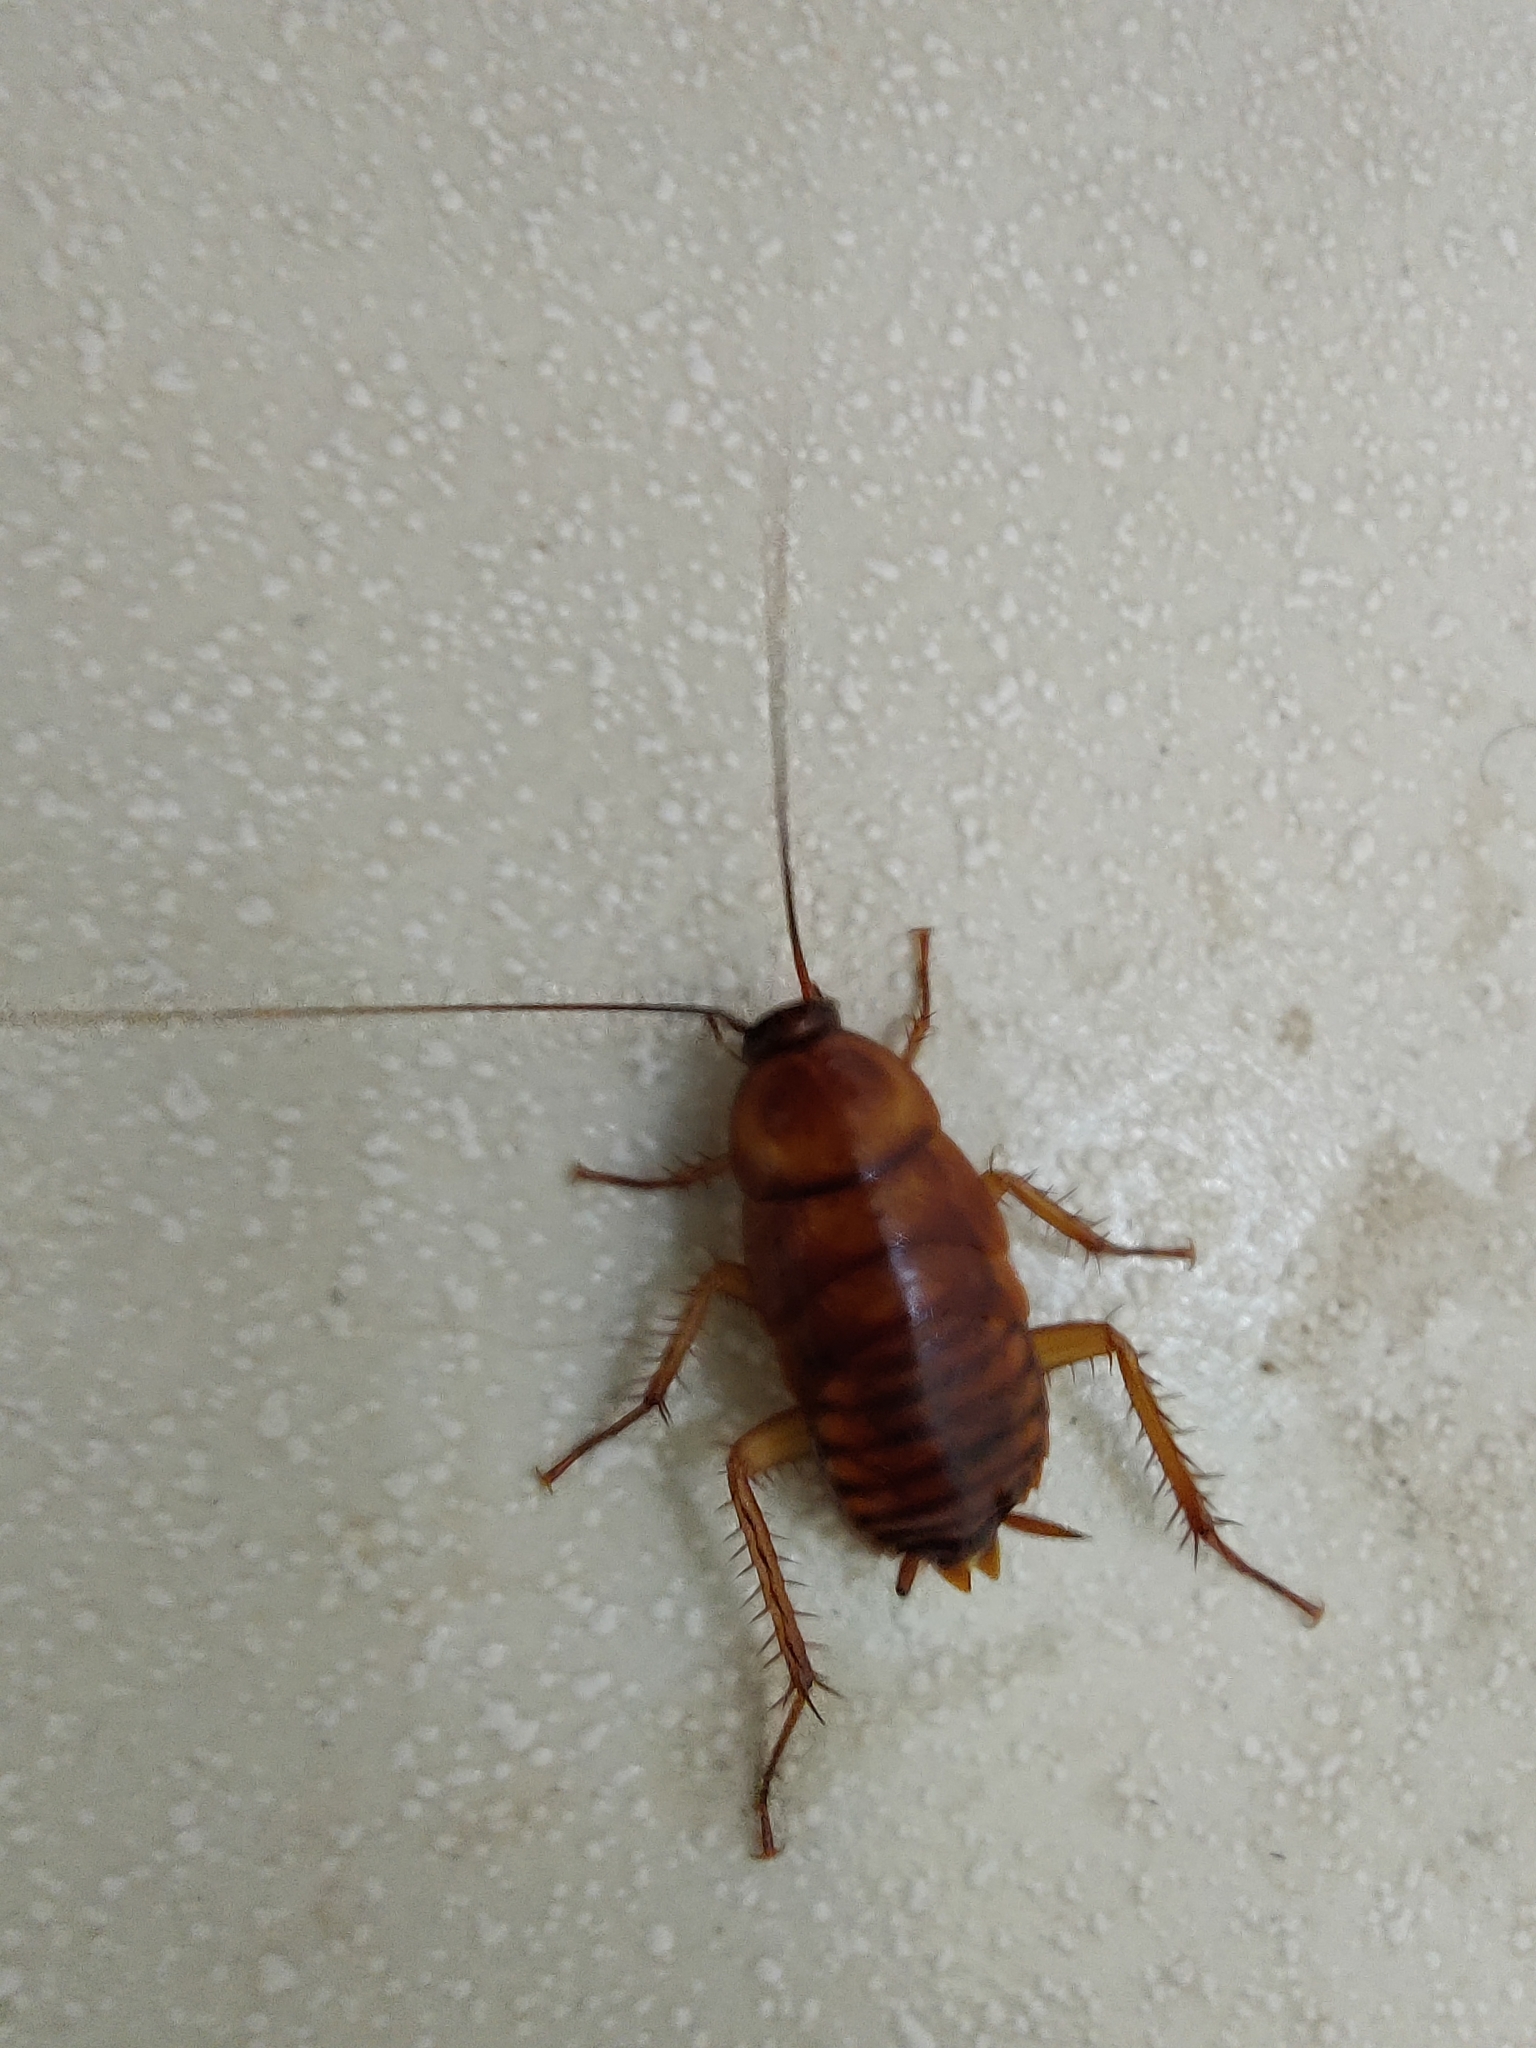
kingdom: Animalia
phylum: Arthropoda
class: Insecta
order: Blattodea
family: Blattidae
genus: Periplaneta
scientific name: Periplaneta americana
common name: American cockroach
